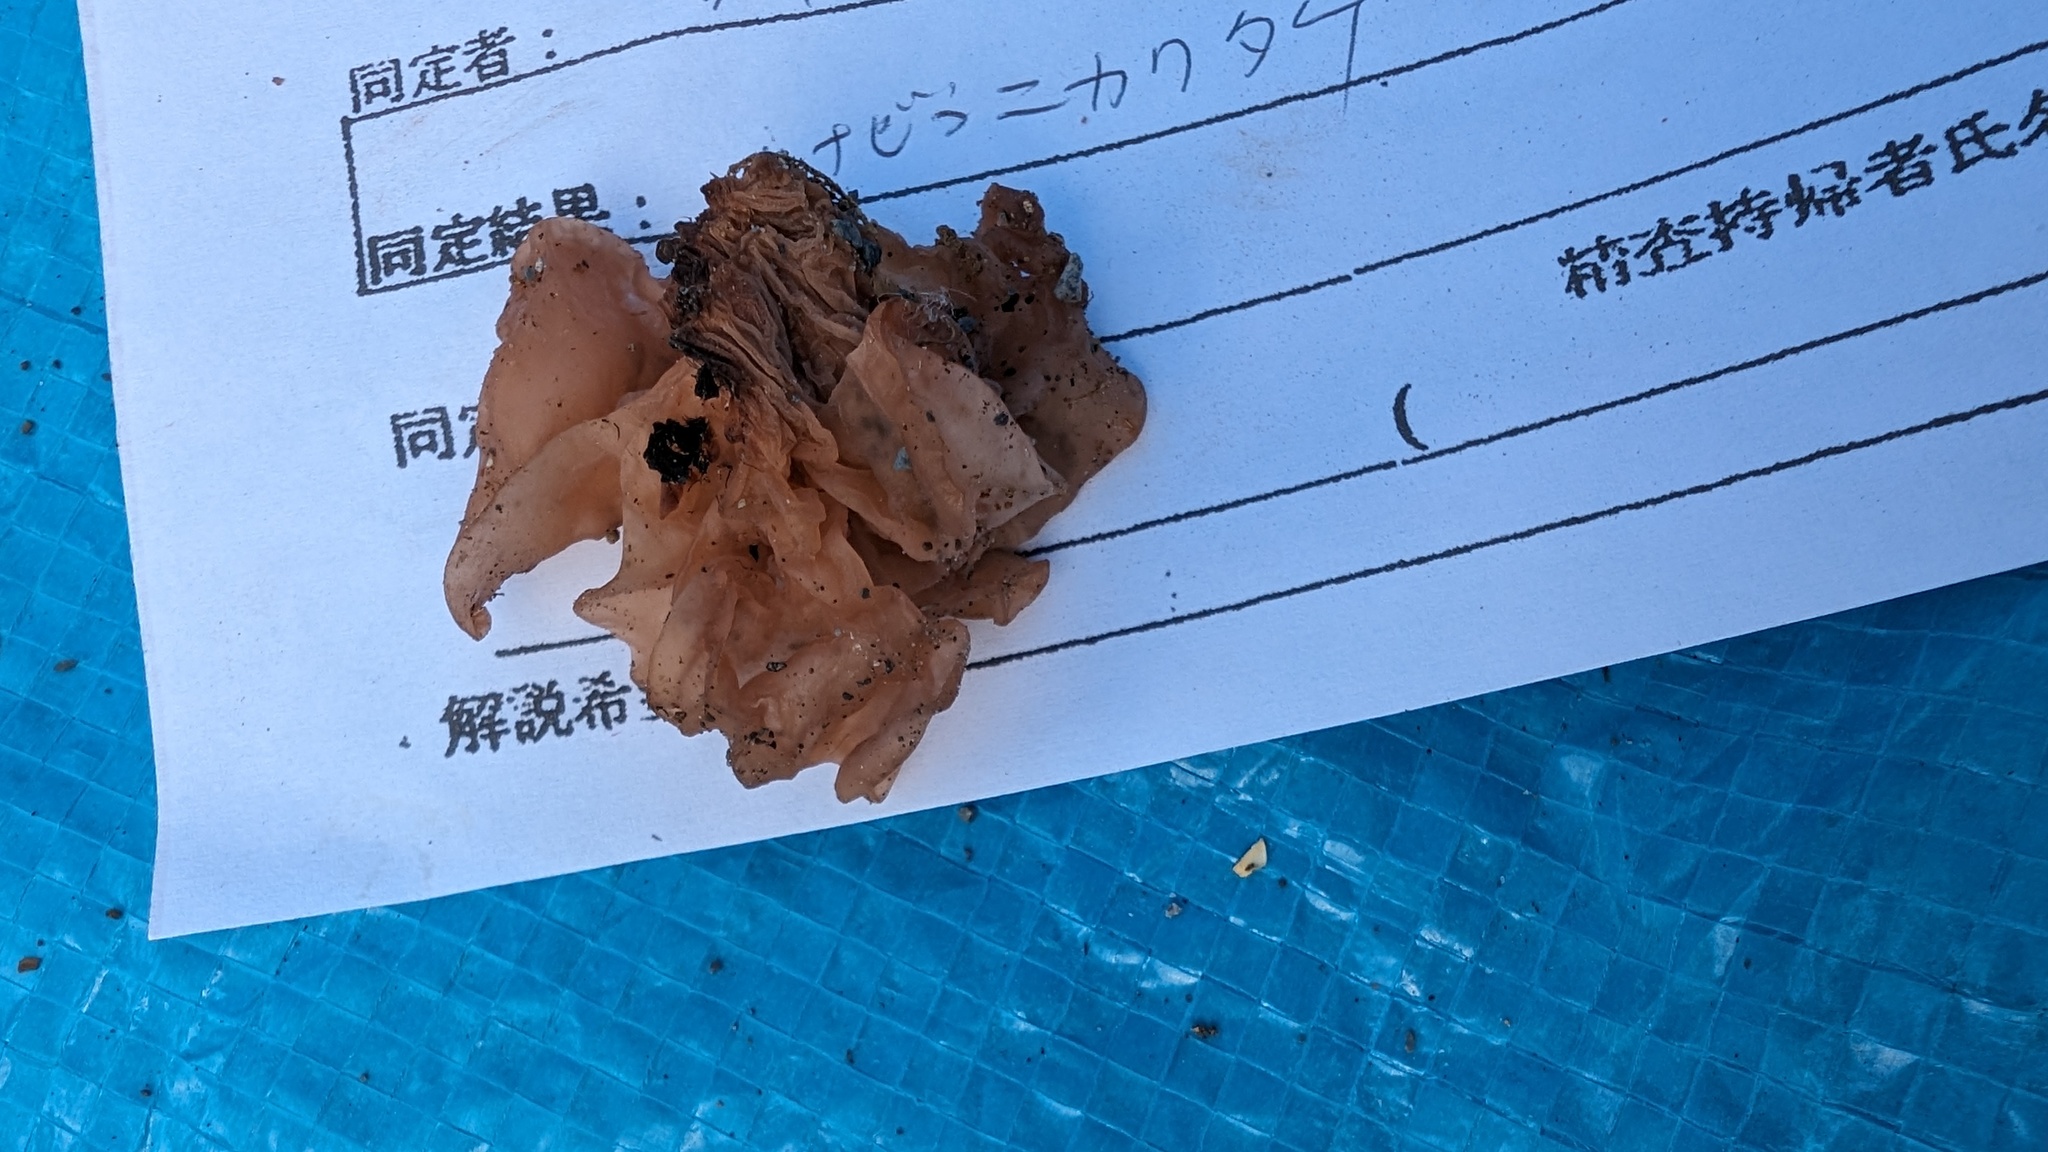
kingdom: Fungi
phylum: Basidiomycota
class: Tremellomycetes
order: Tremellales
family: Tremellaceae
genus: Phaeotremella
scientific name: Phaeotremella foliacea
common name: Leafy brain
